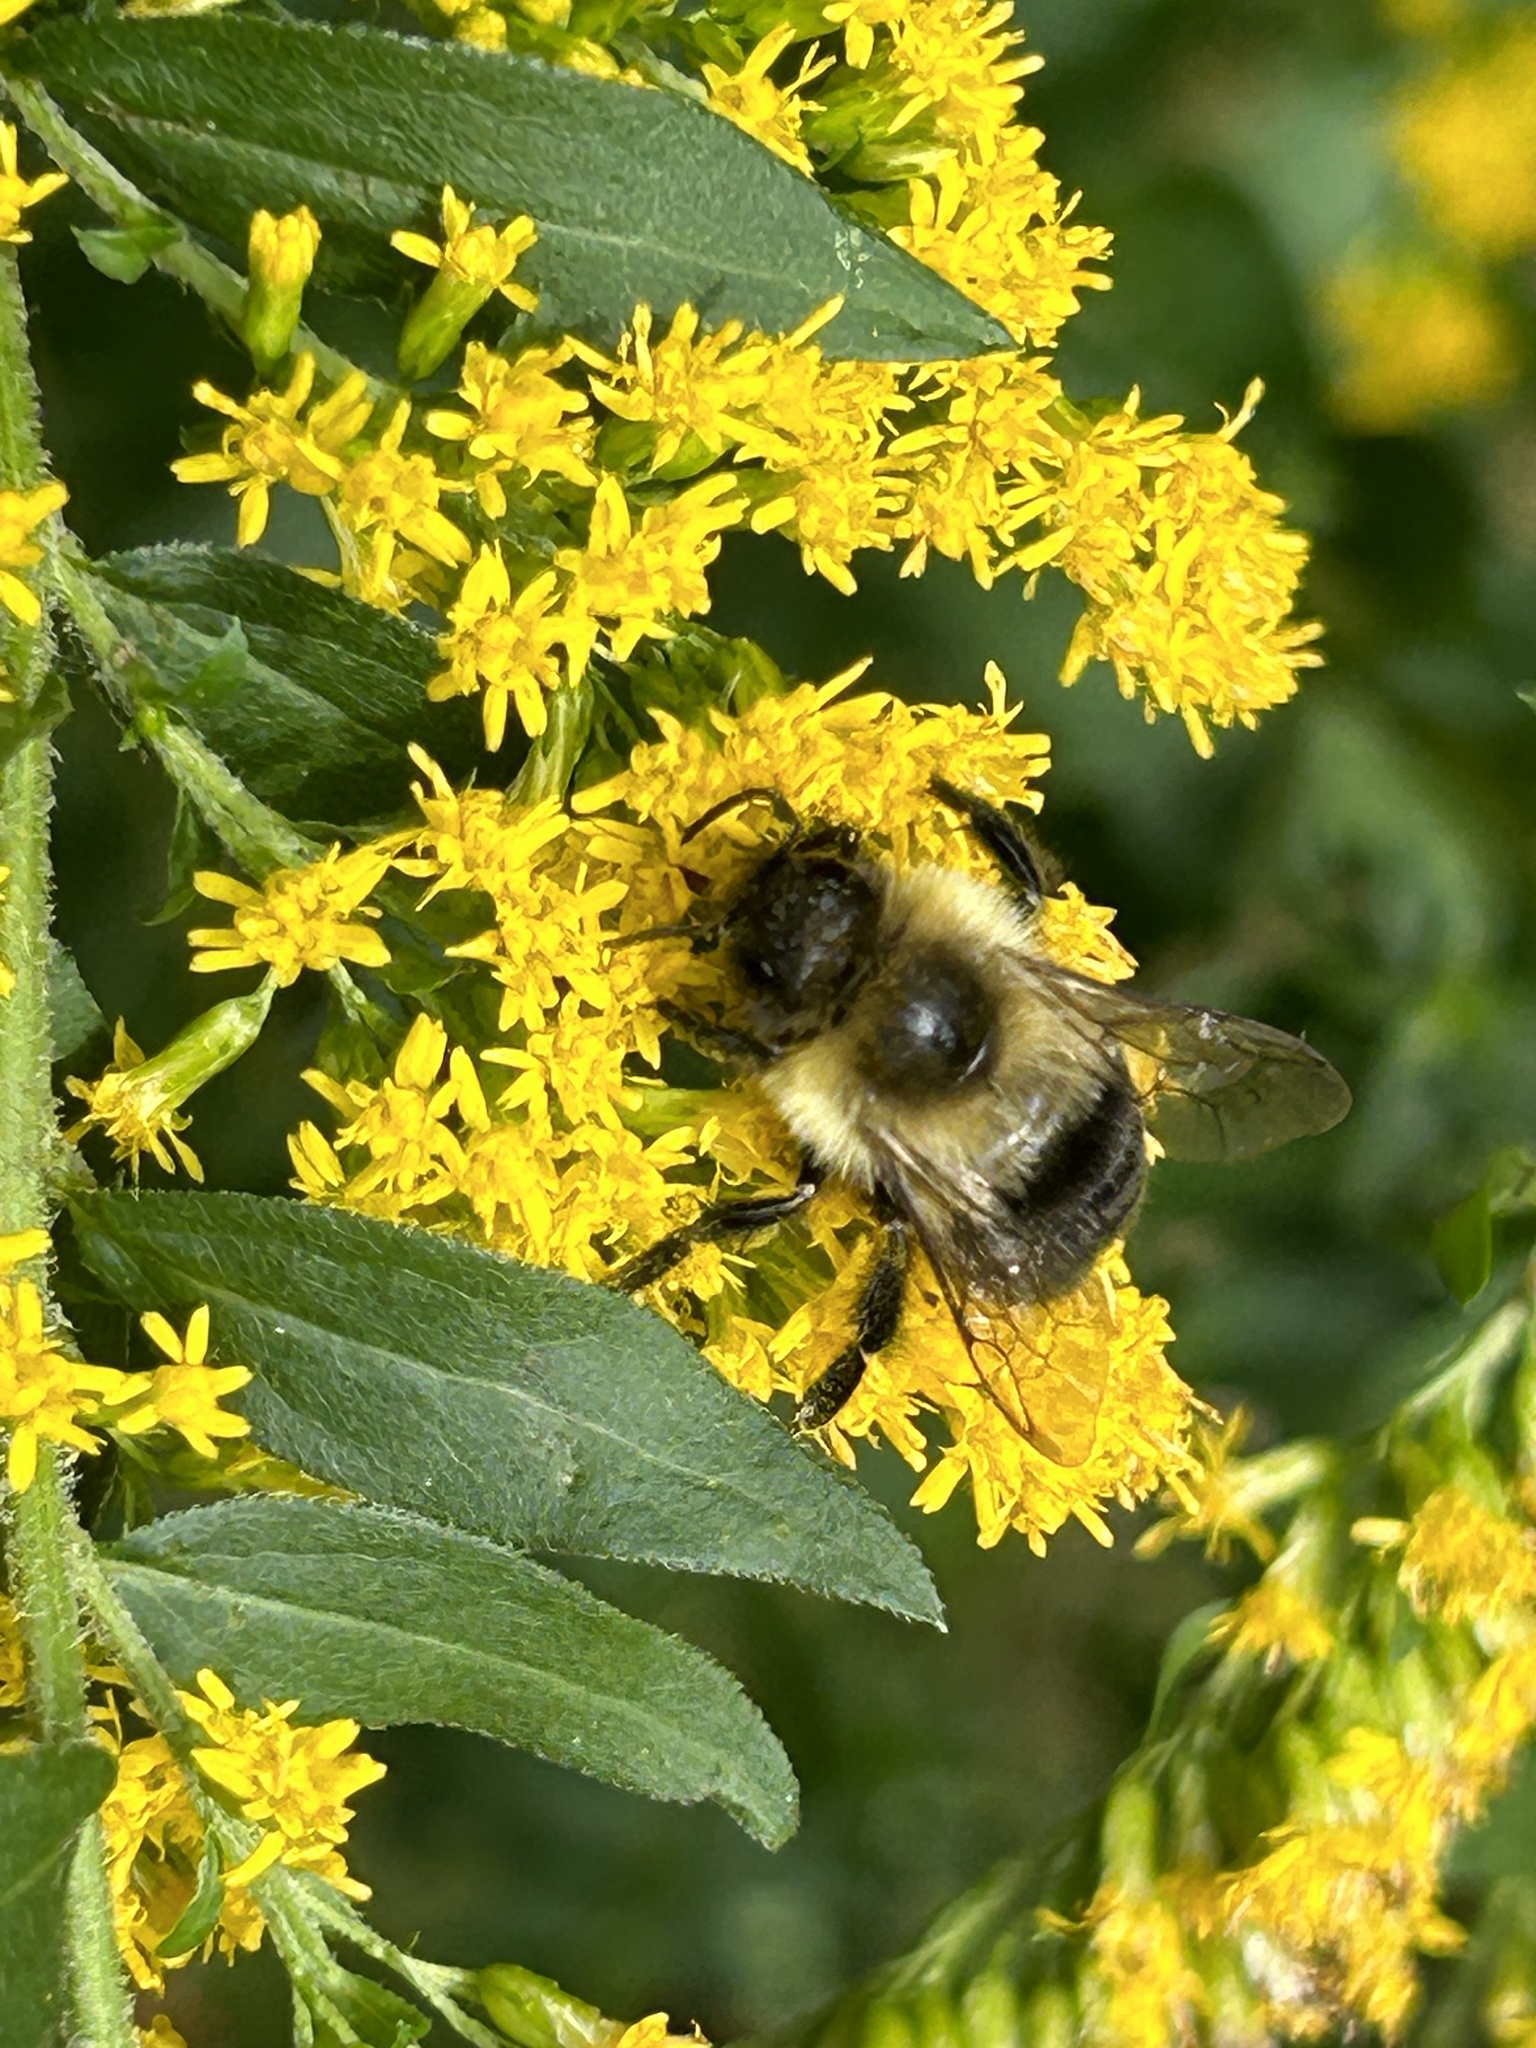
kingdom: Animalia
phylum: Arthropoda
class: Insecta
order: Hymenoptera
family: Apidae
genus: Bombus
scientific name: Bombus impatiens
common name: Common eastern bumble bee
